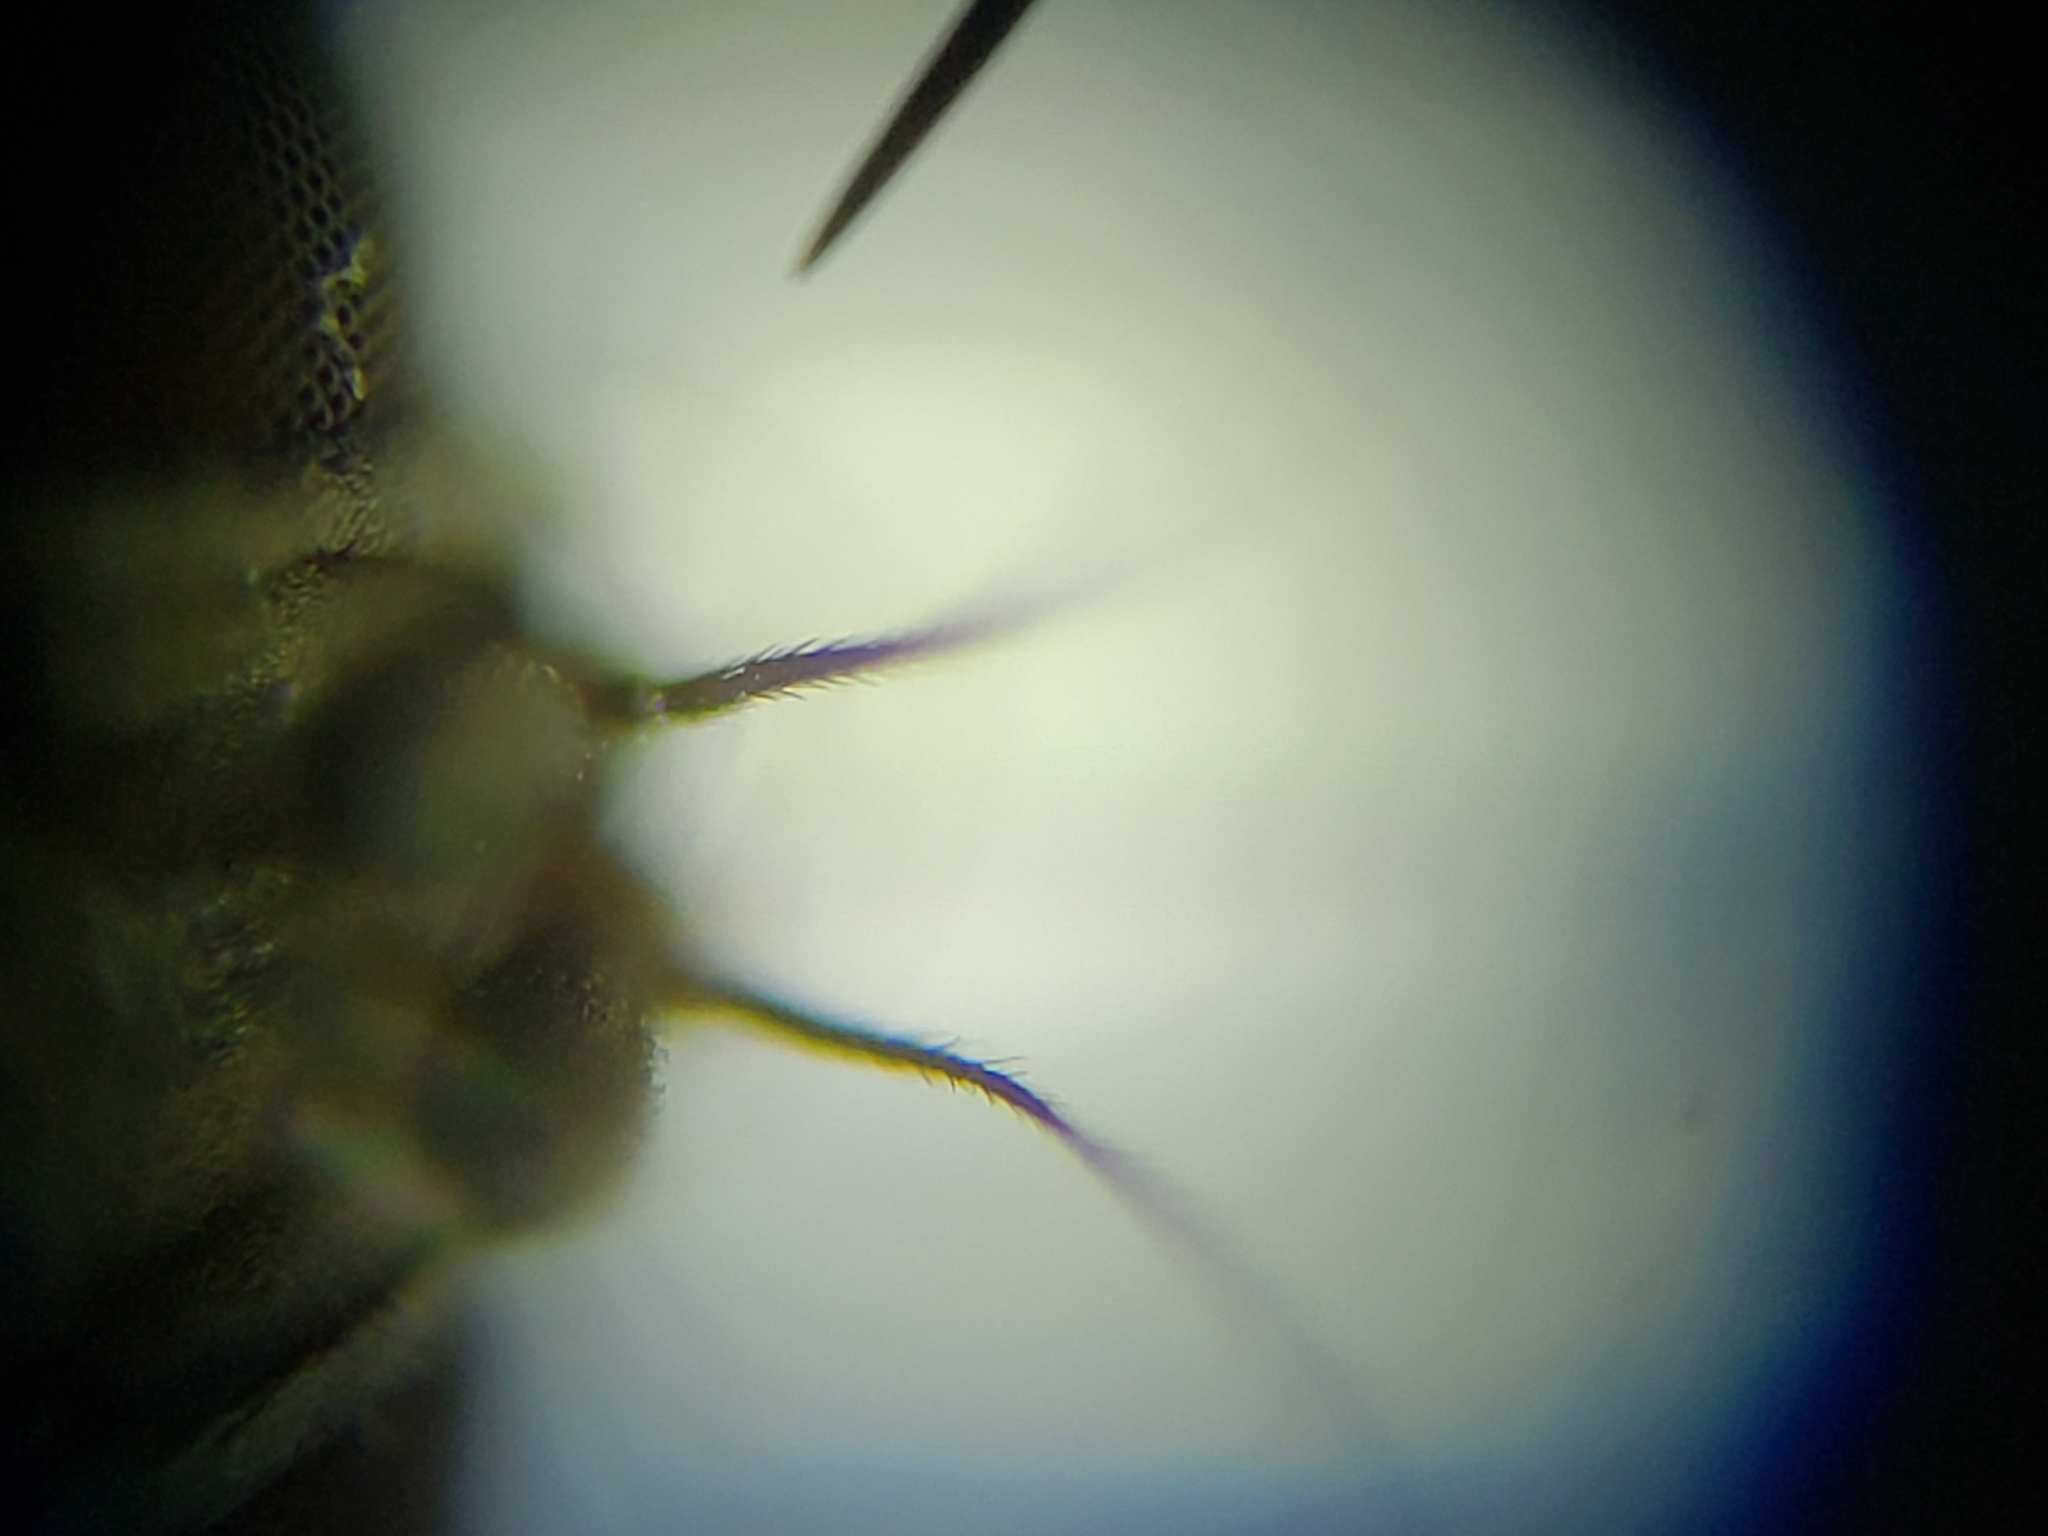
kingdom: Animalia
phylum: Arthropoda
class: Insecta
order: Diptera
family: Muscidae
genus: Neodexiopsis
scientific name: Neodexiopsis ovata
